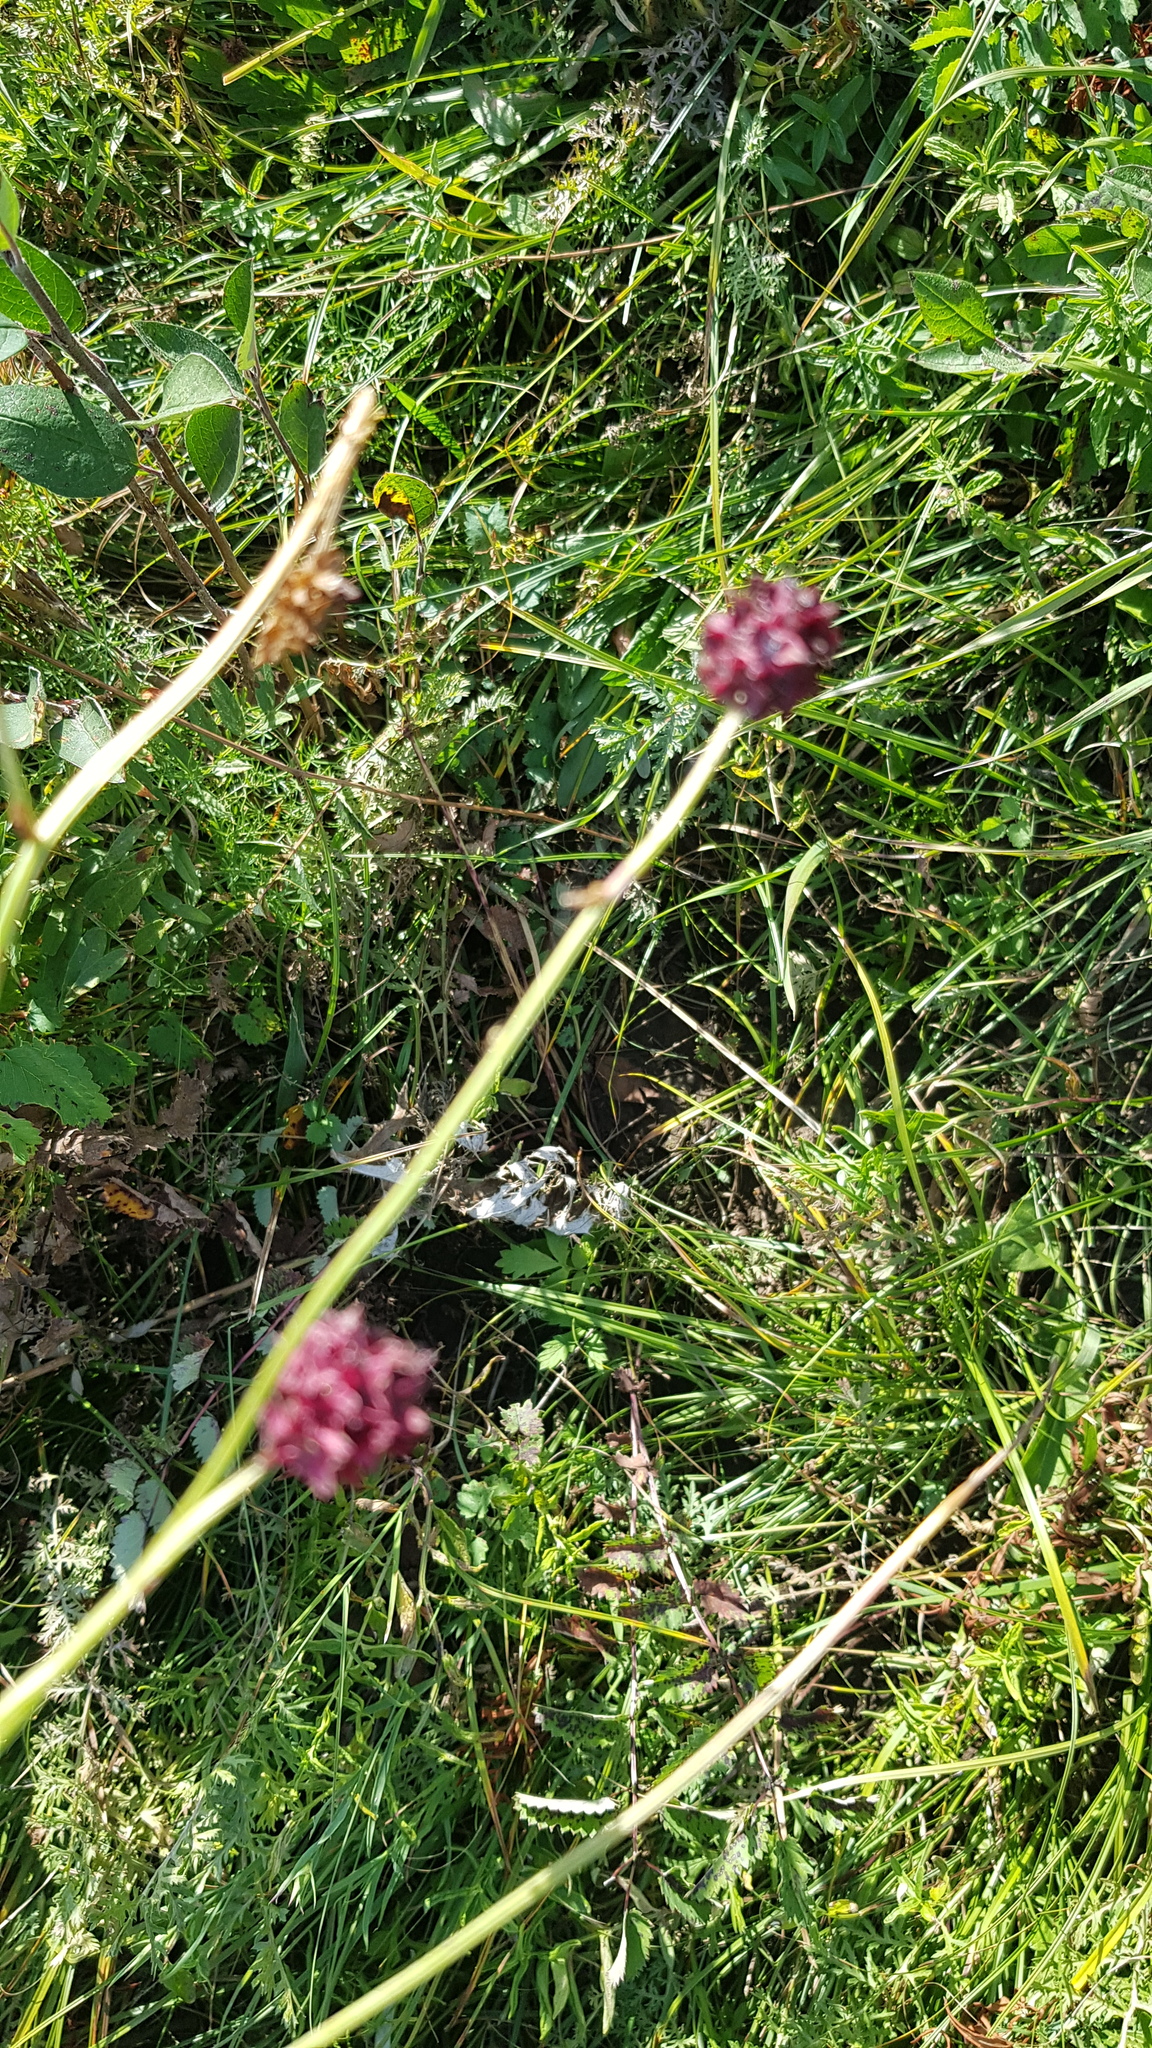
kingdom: Plantae
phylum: Tracheophyta
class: Magnoliopsida
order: Rosales
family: Rosaceae
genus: Sanguisorba
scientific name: Sanguisorba officinalis
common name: Great burnet
